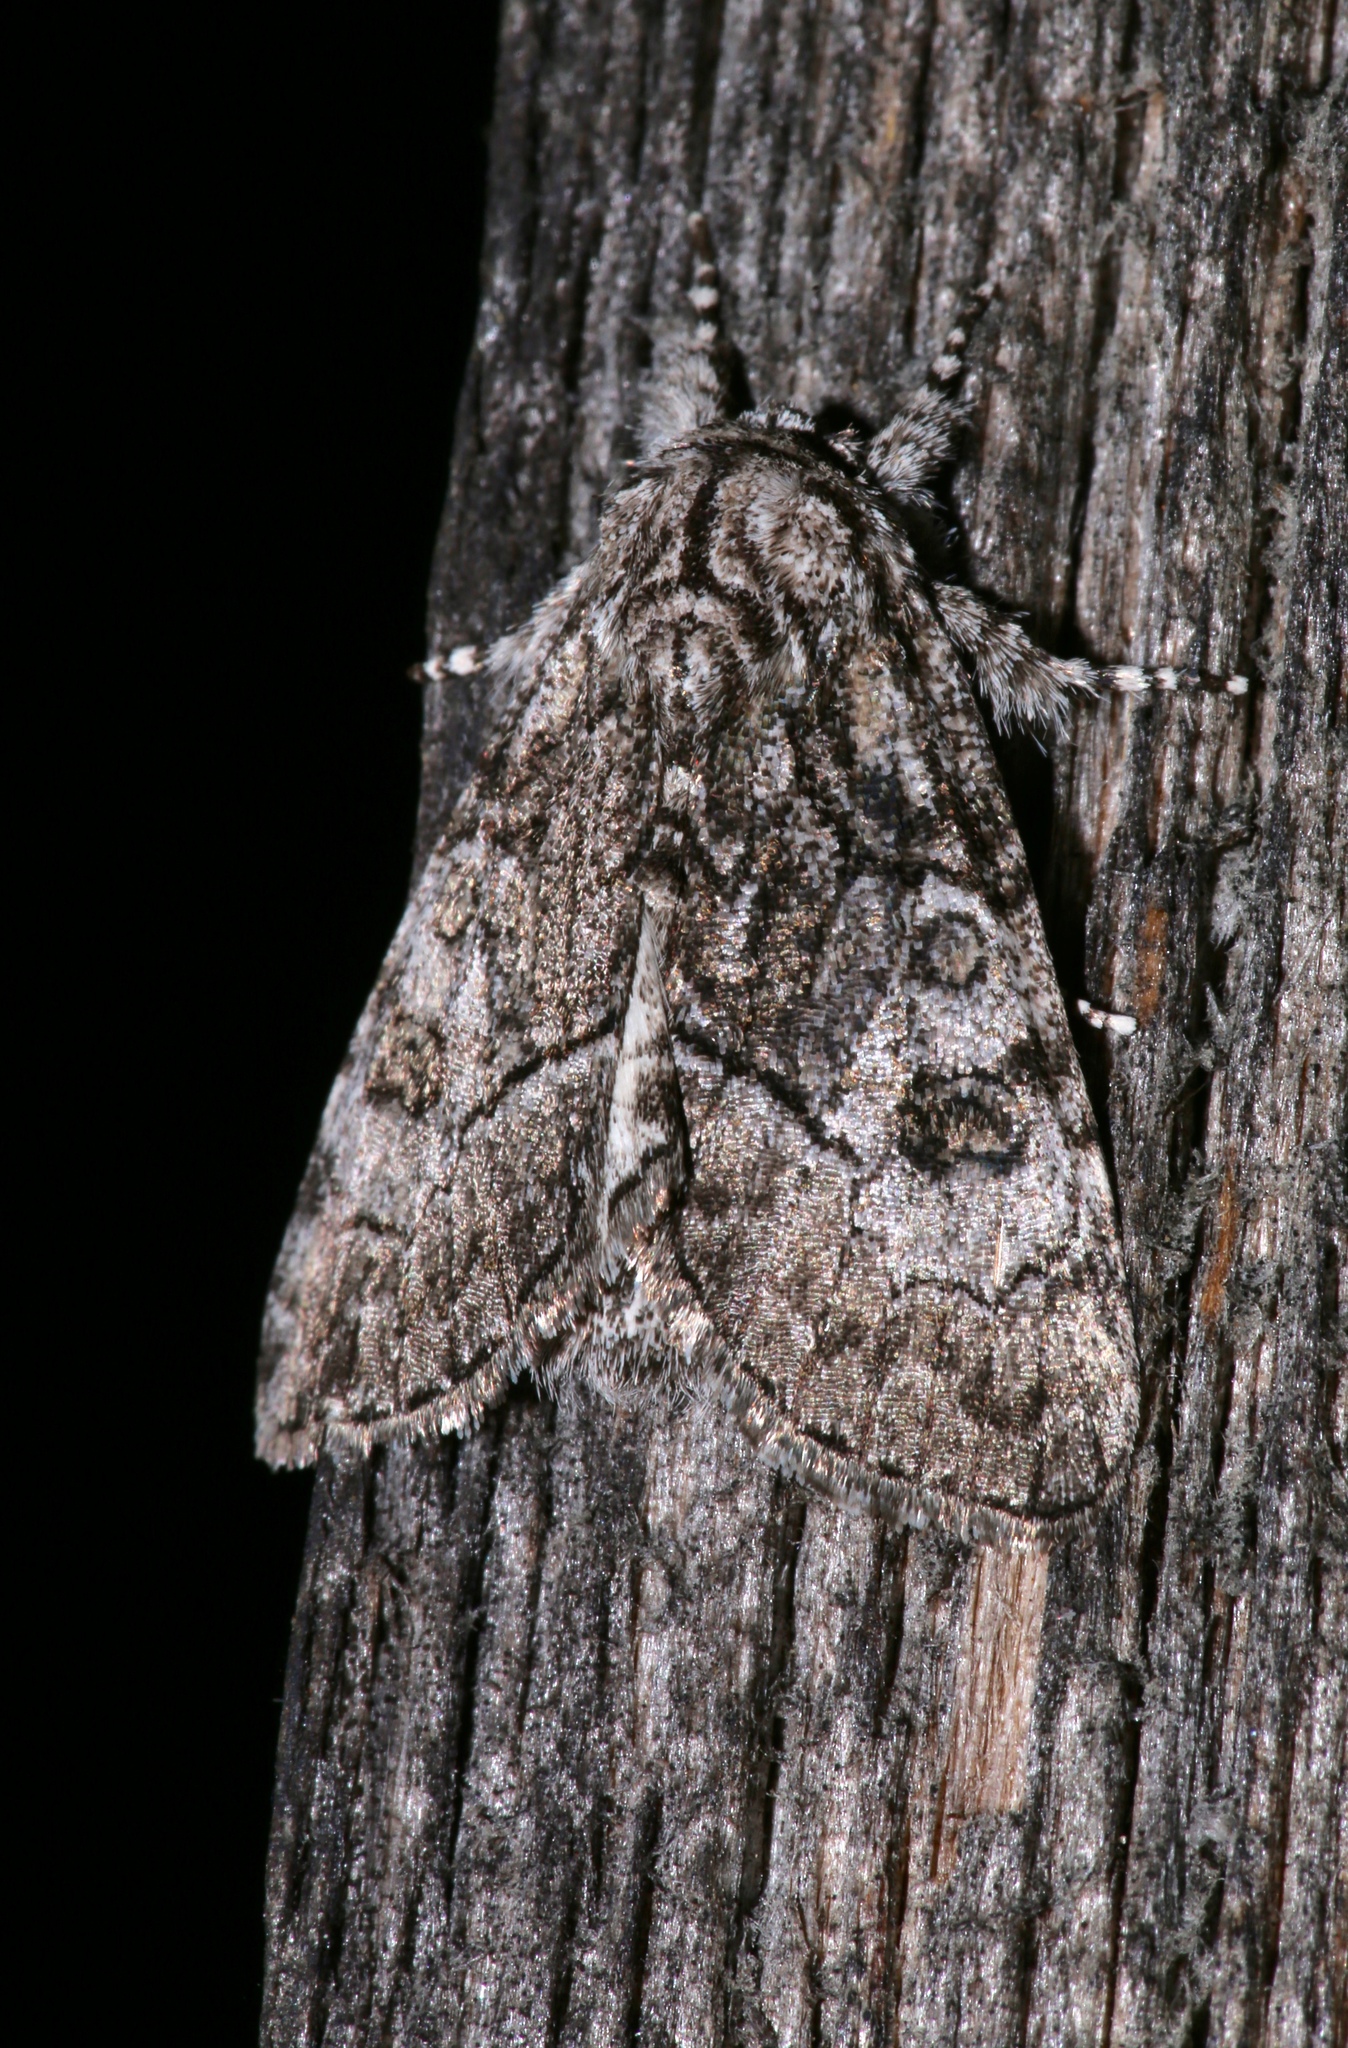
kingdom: Animalia
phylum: Arthropoda
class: Insecta
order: Lepidoptera
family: Noctuidae
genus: Raphia
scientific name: Raphia frater
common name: Brother
